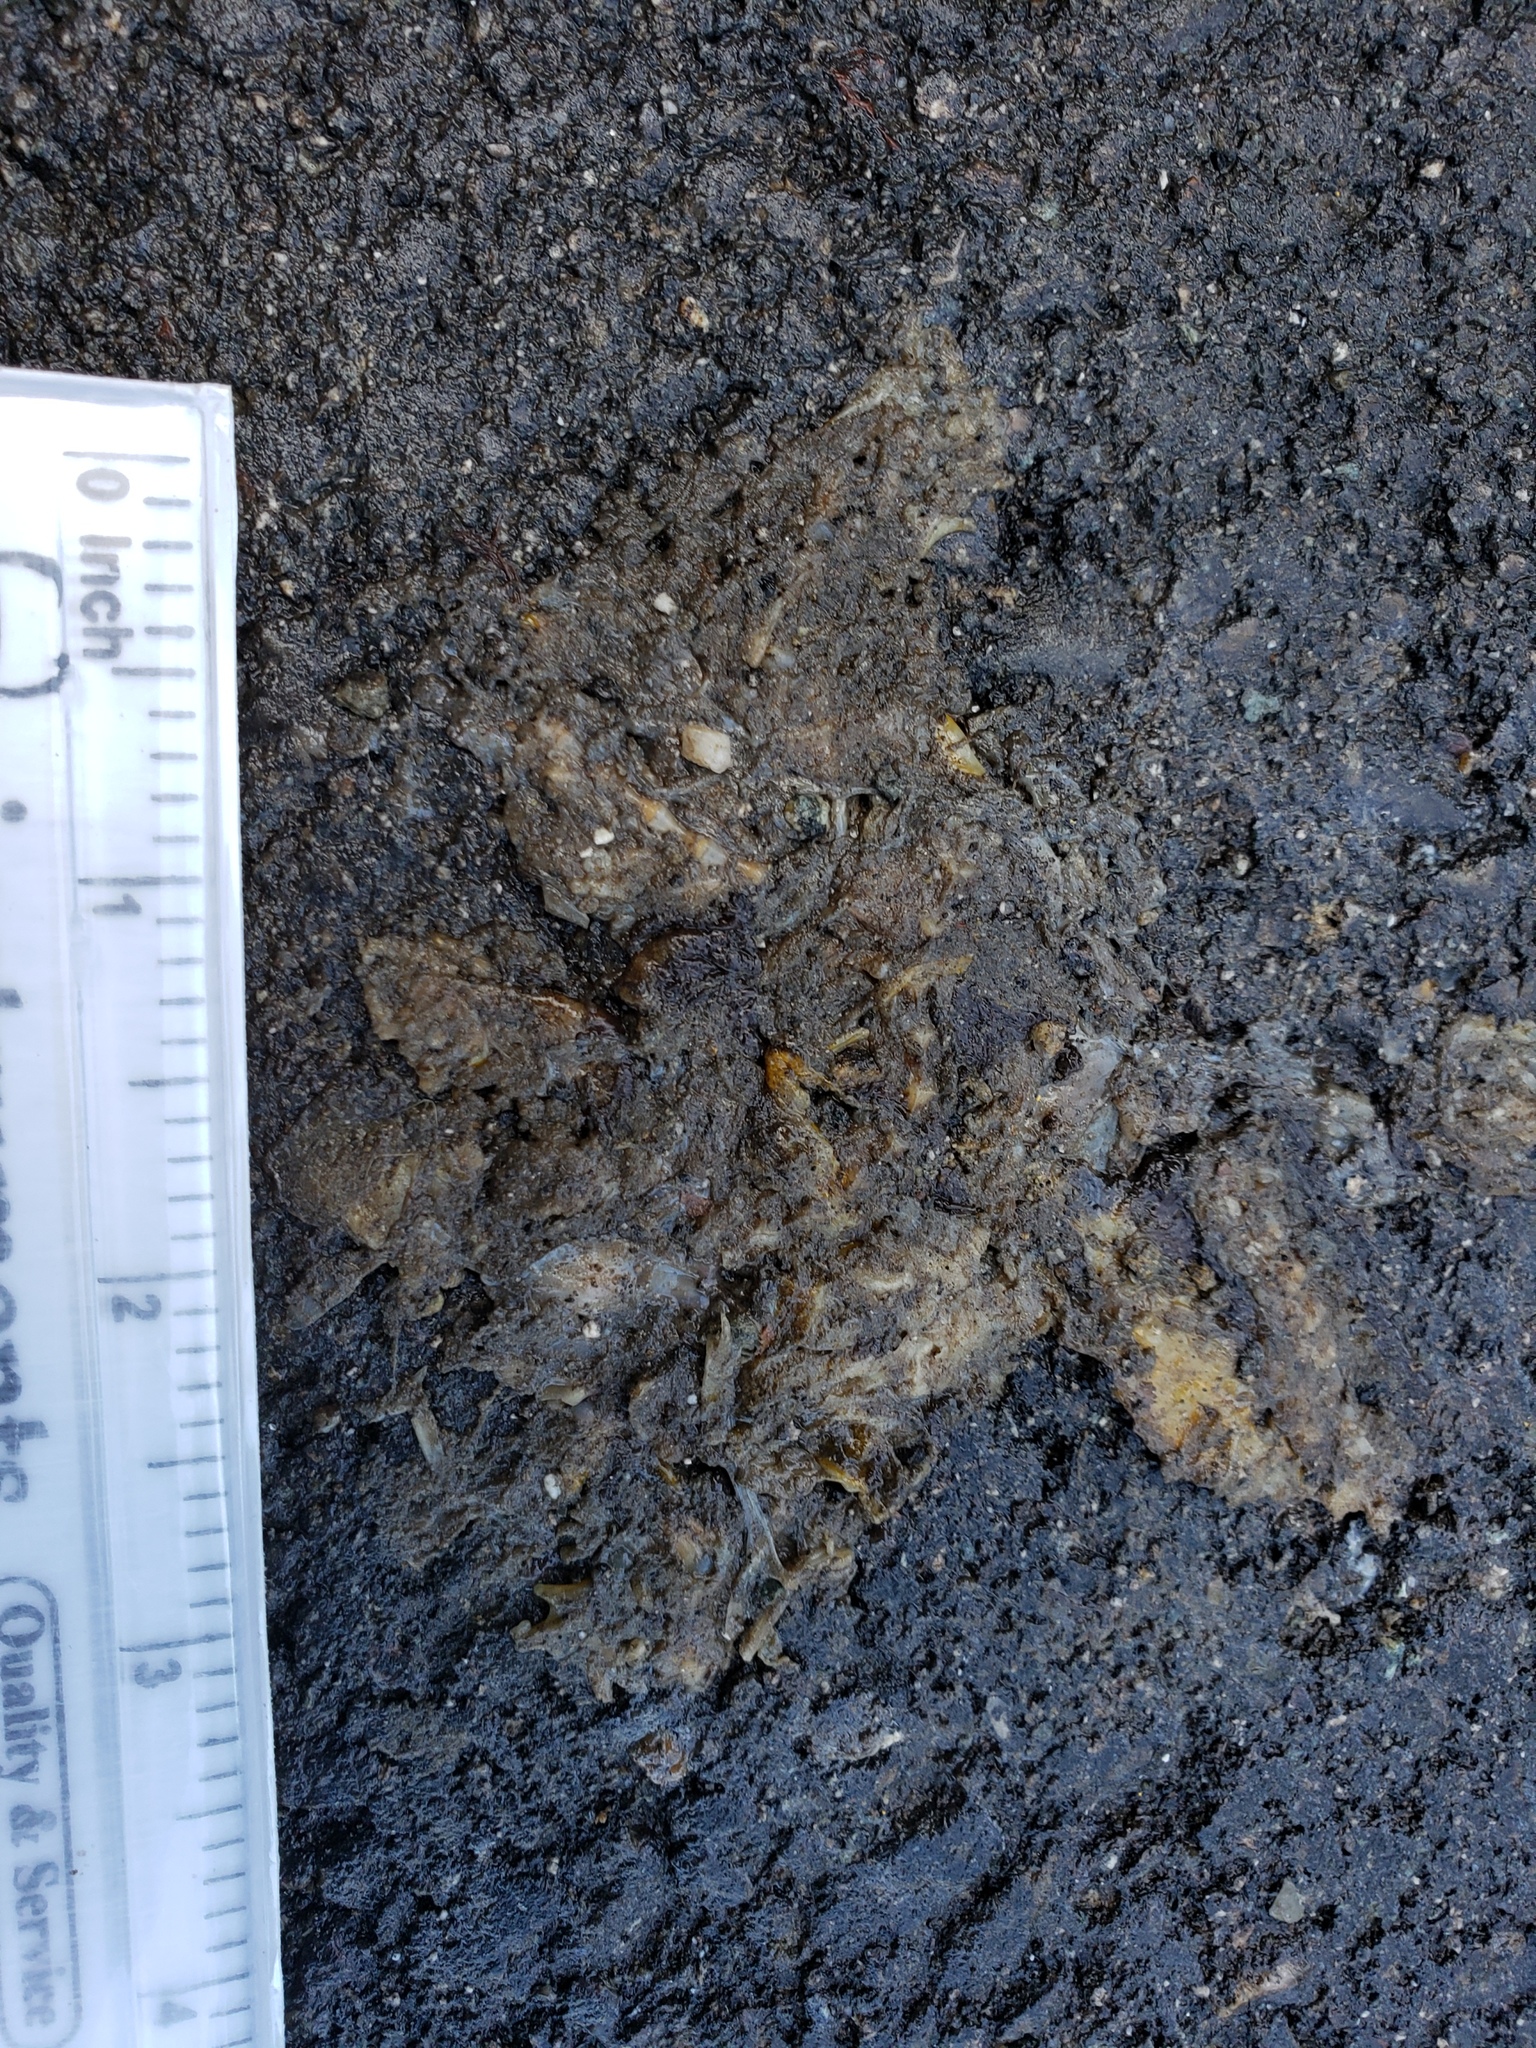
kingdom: Animalia
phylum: Chordata
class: Amphibia
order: Caudata
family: Salamandridae
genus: Taricha
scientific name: Taricha
